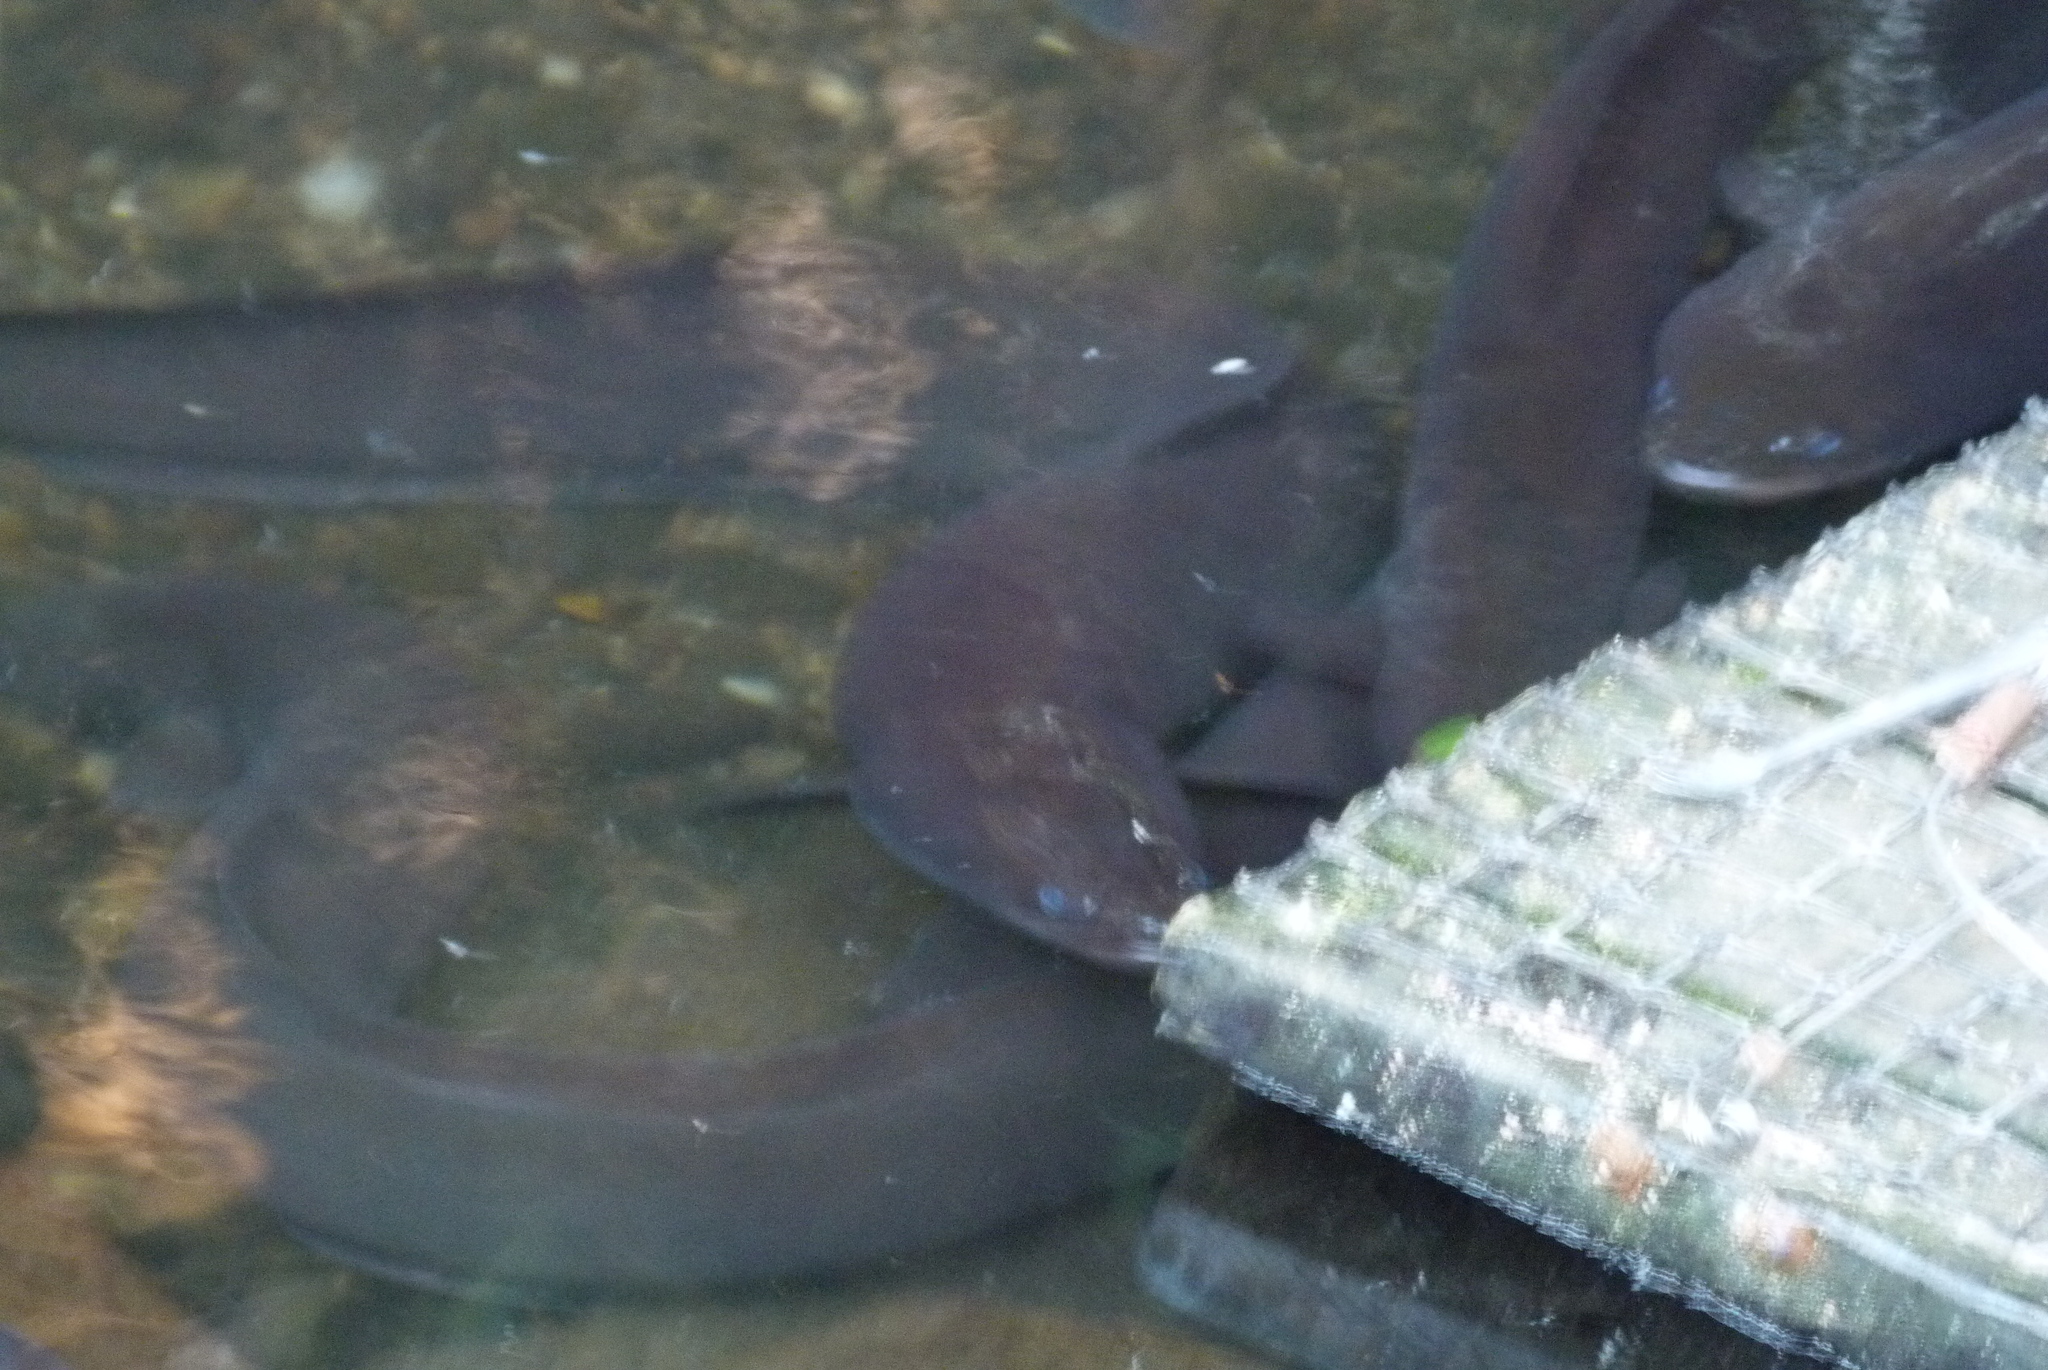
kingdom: Animalia
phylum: Chordata
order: Anguilliformes
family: Anguillidae
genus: Anguilla
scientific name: Anguilla dieffenbachii
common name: New zealand longfin eel
